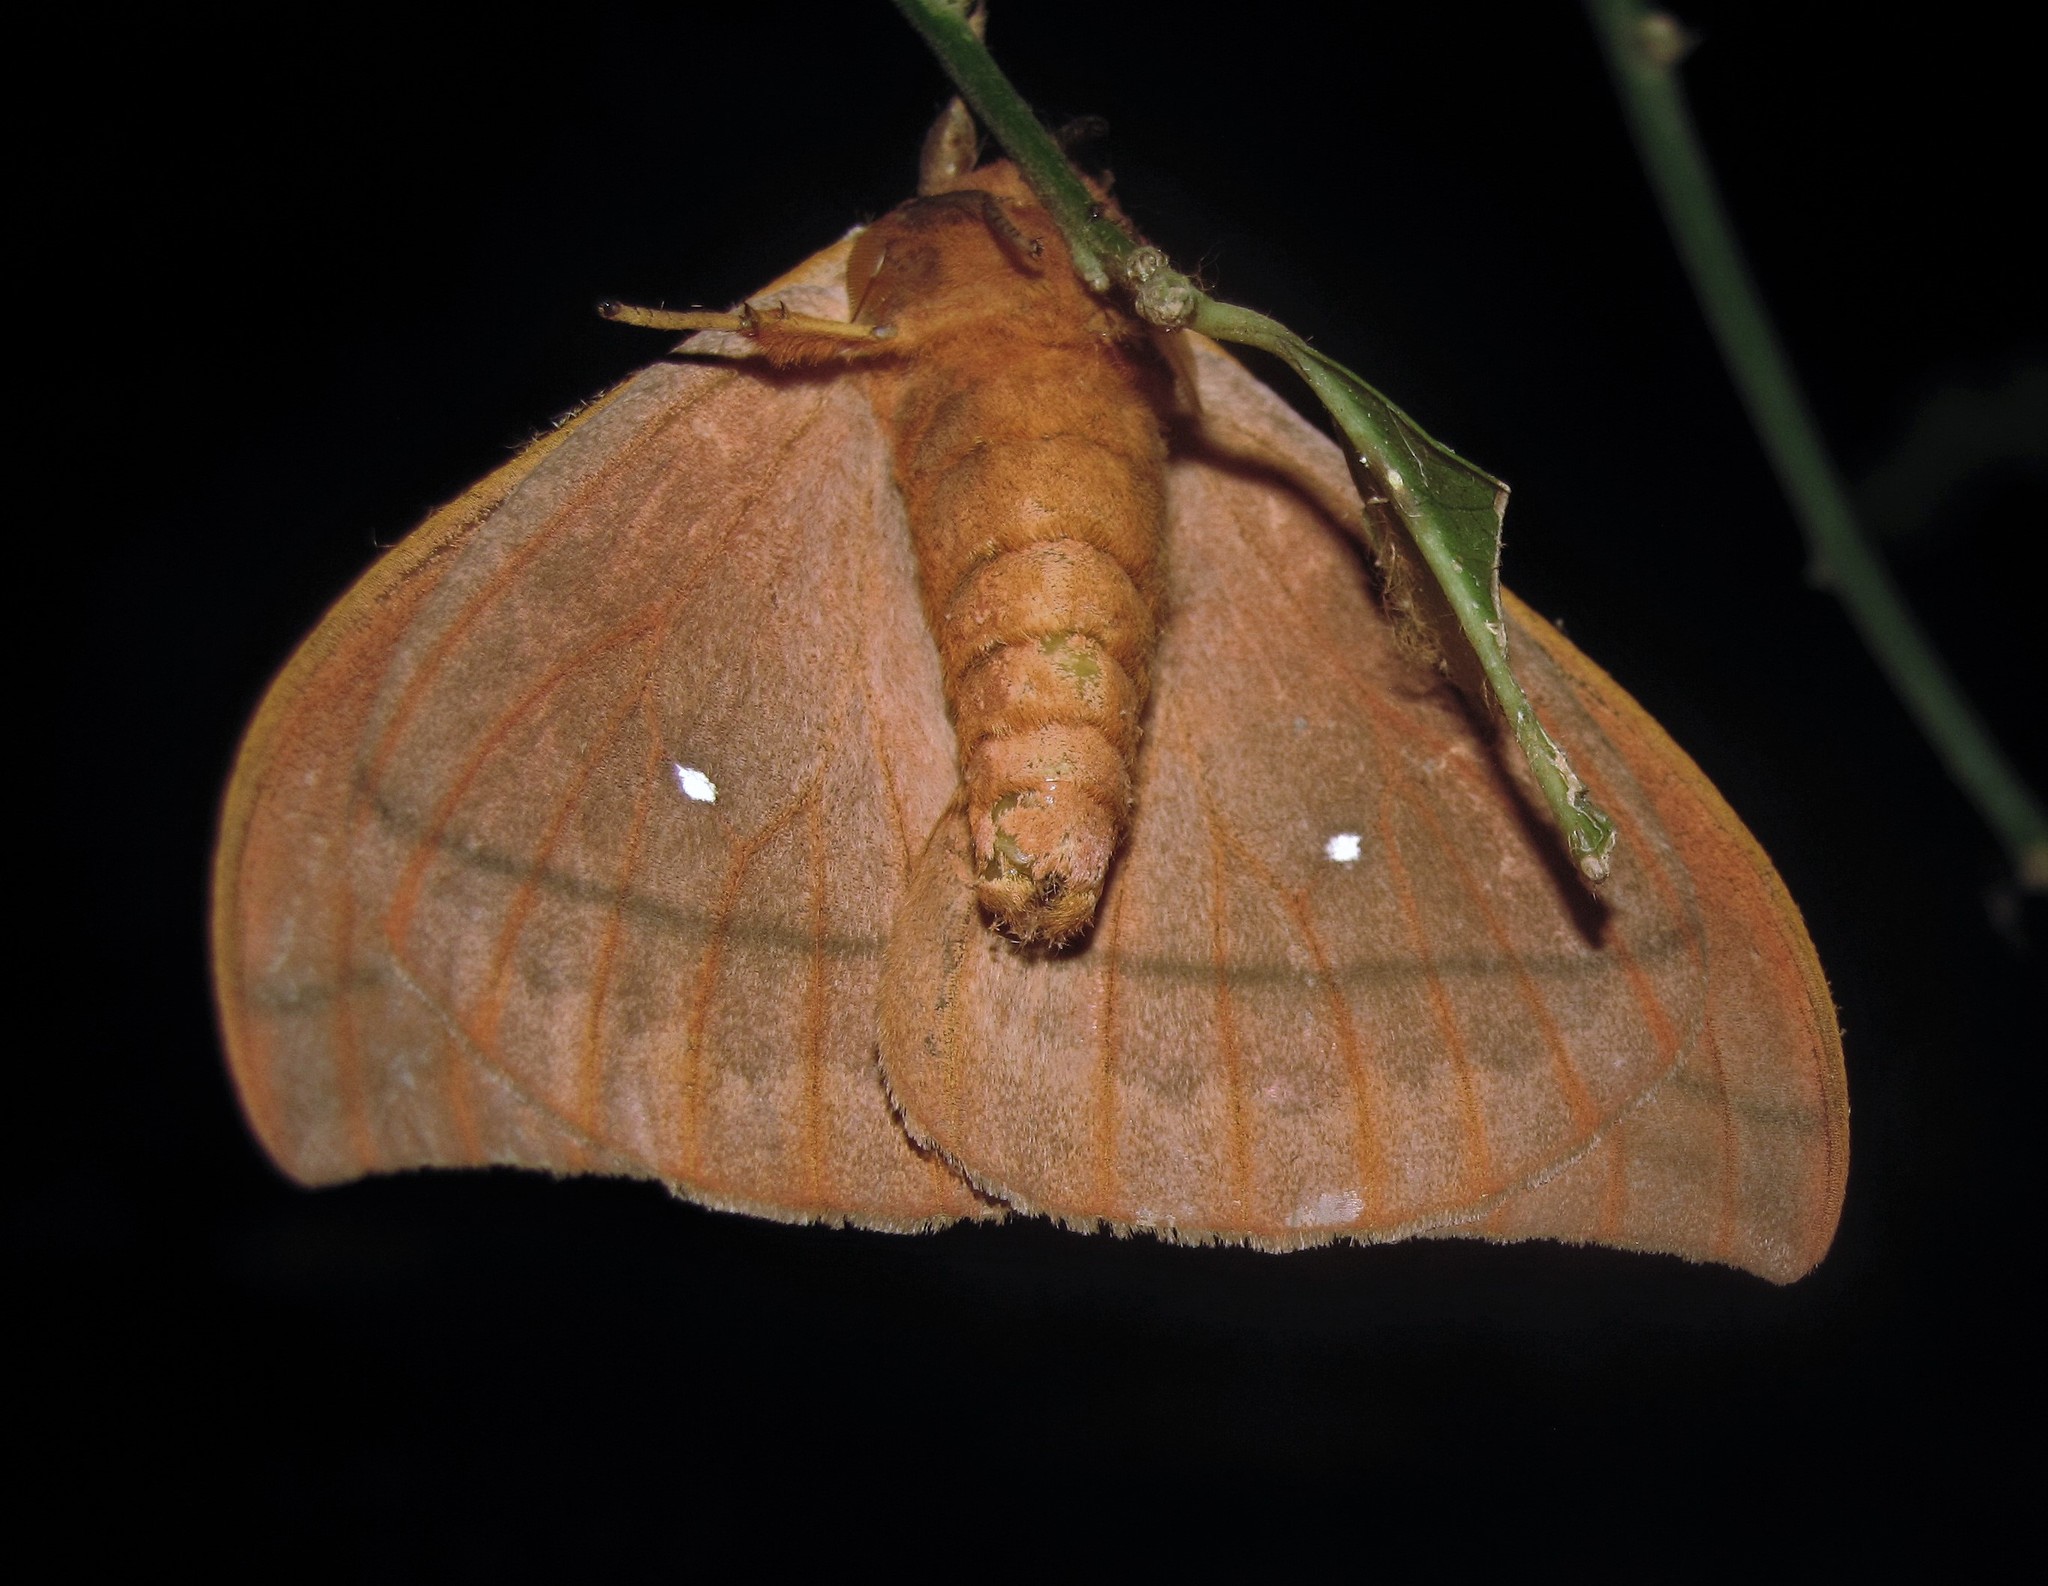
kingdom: Animalia
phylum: Arthropoda
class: Insecta
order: Lepidoptera
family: Saturniidae
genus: Automeris
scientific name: Automeris illustris
